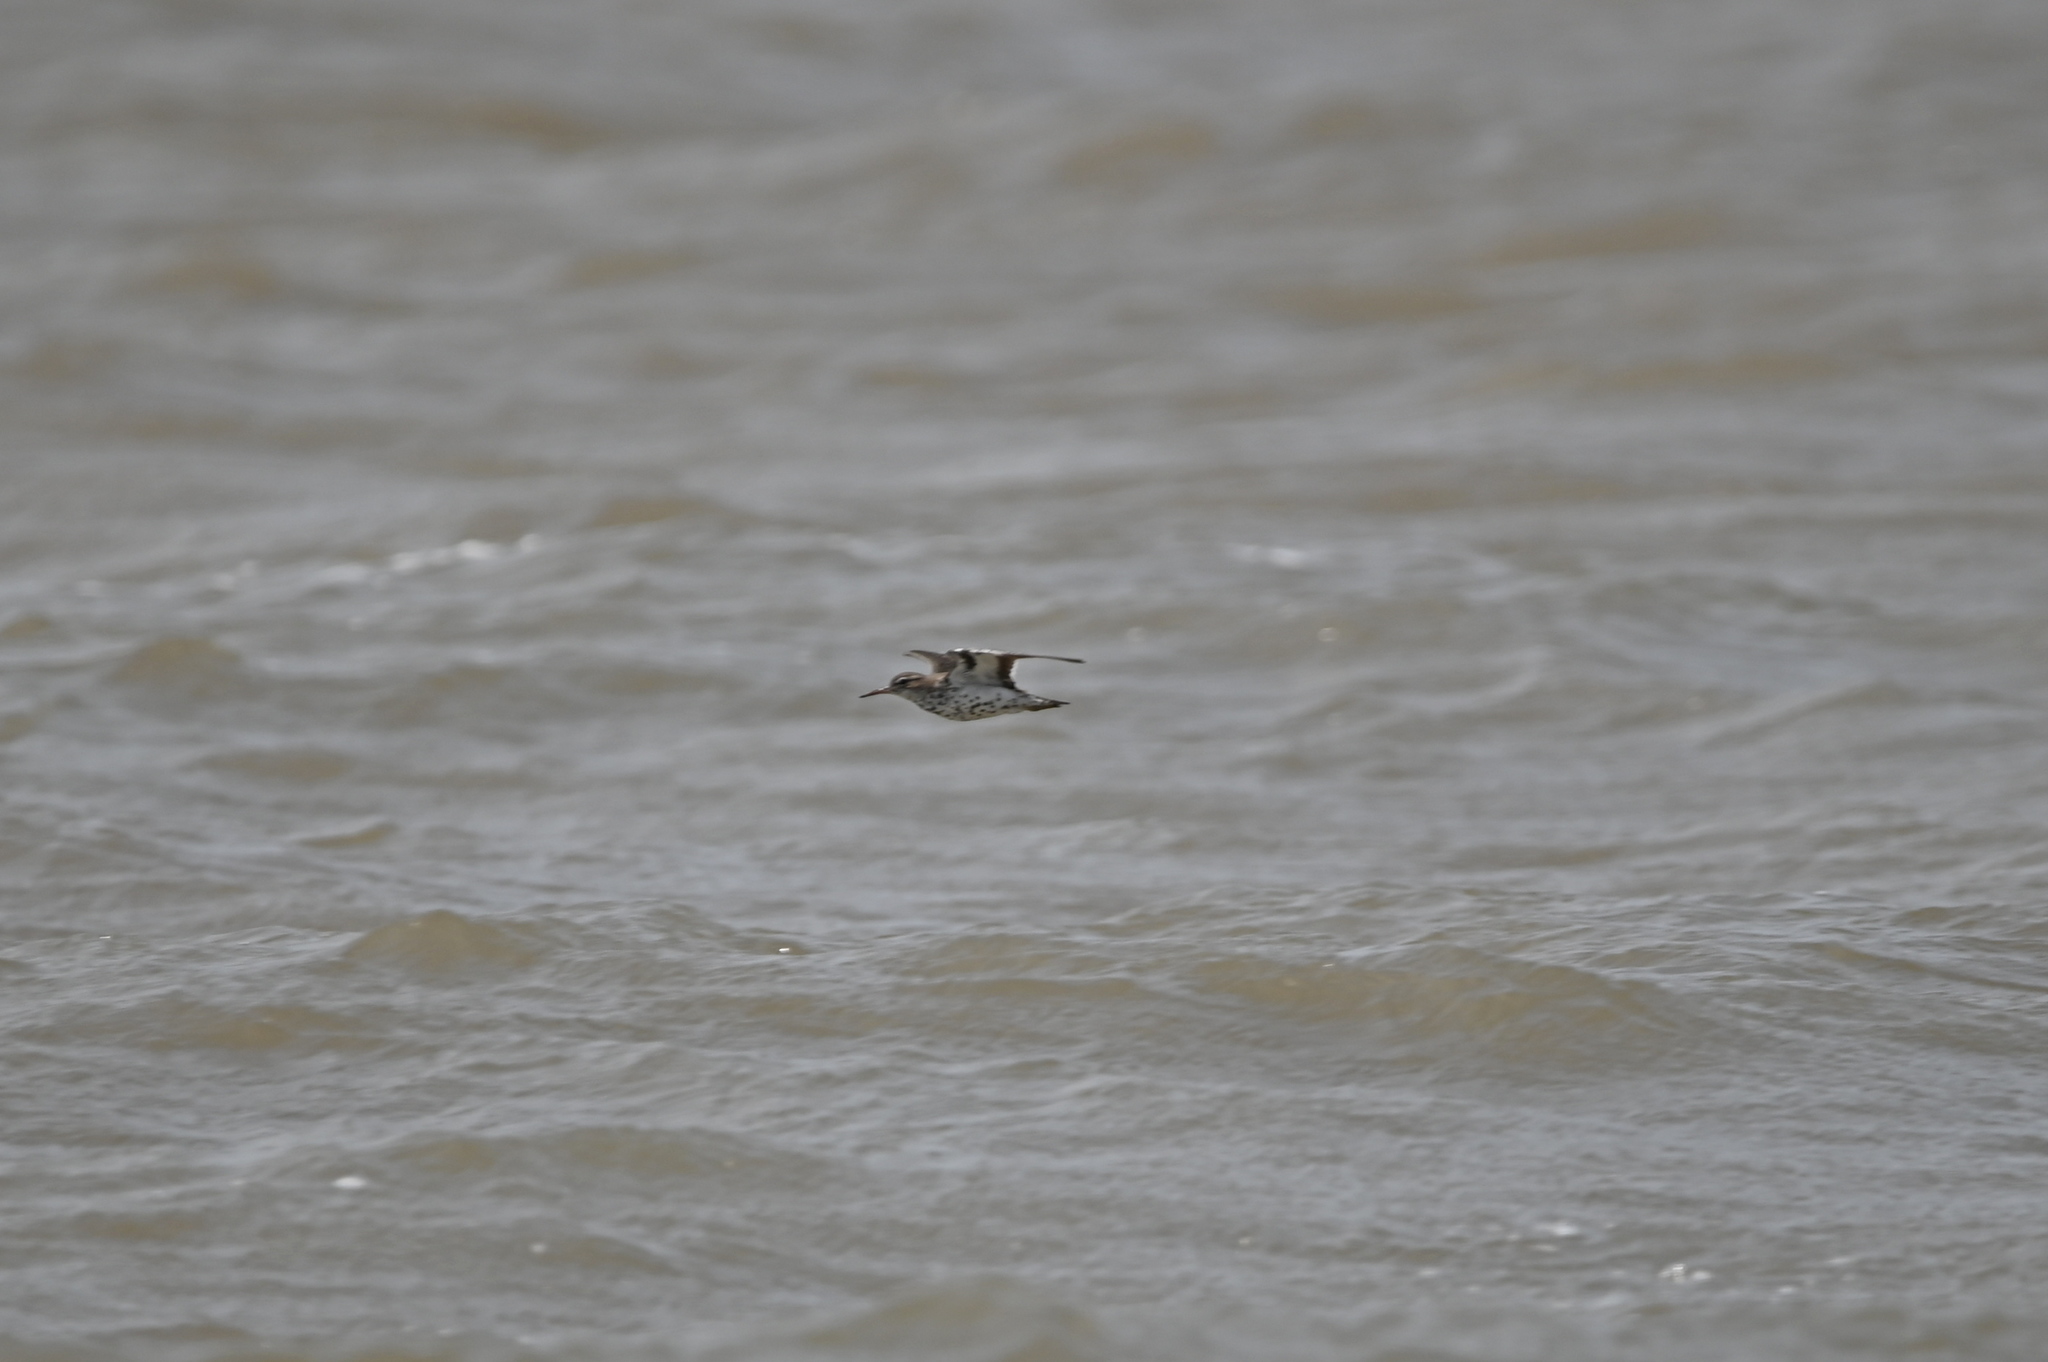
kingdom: Animalia
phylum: Chordata
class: Aves
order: Charadriiformes
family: Scolopacidae
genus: Actitis
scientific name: Actitis macularius
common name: Spotted sandpiper
